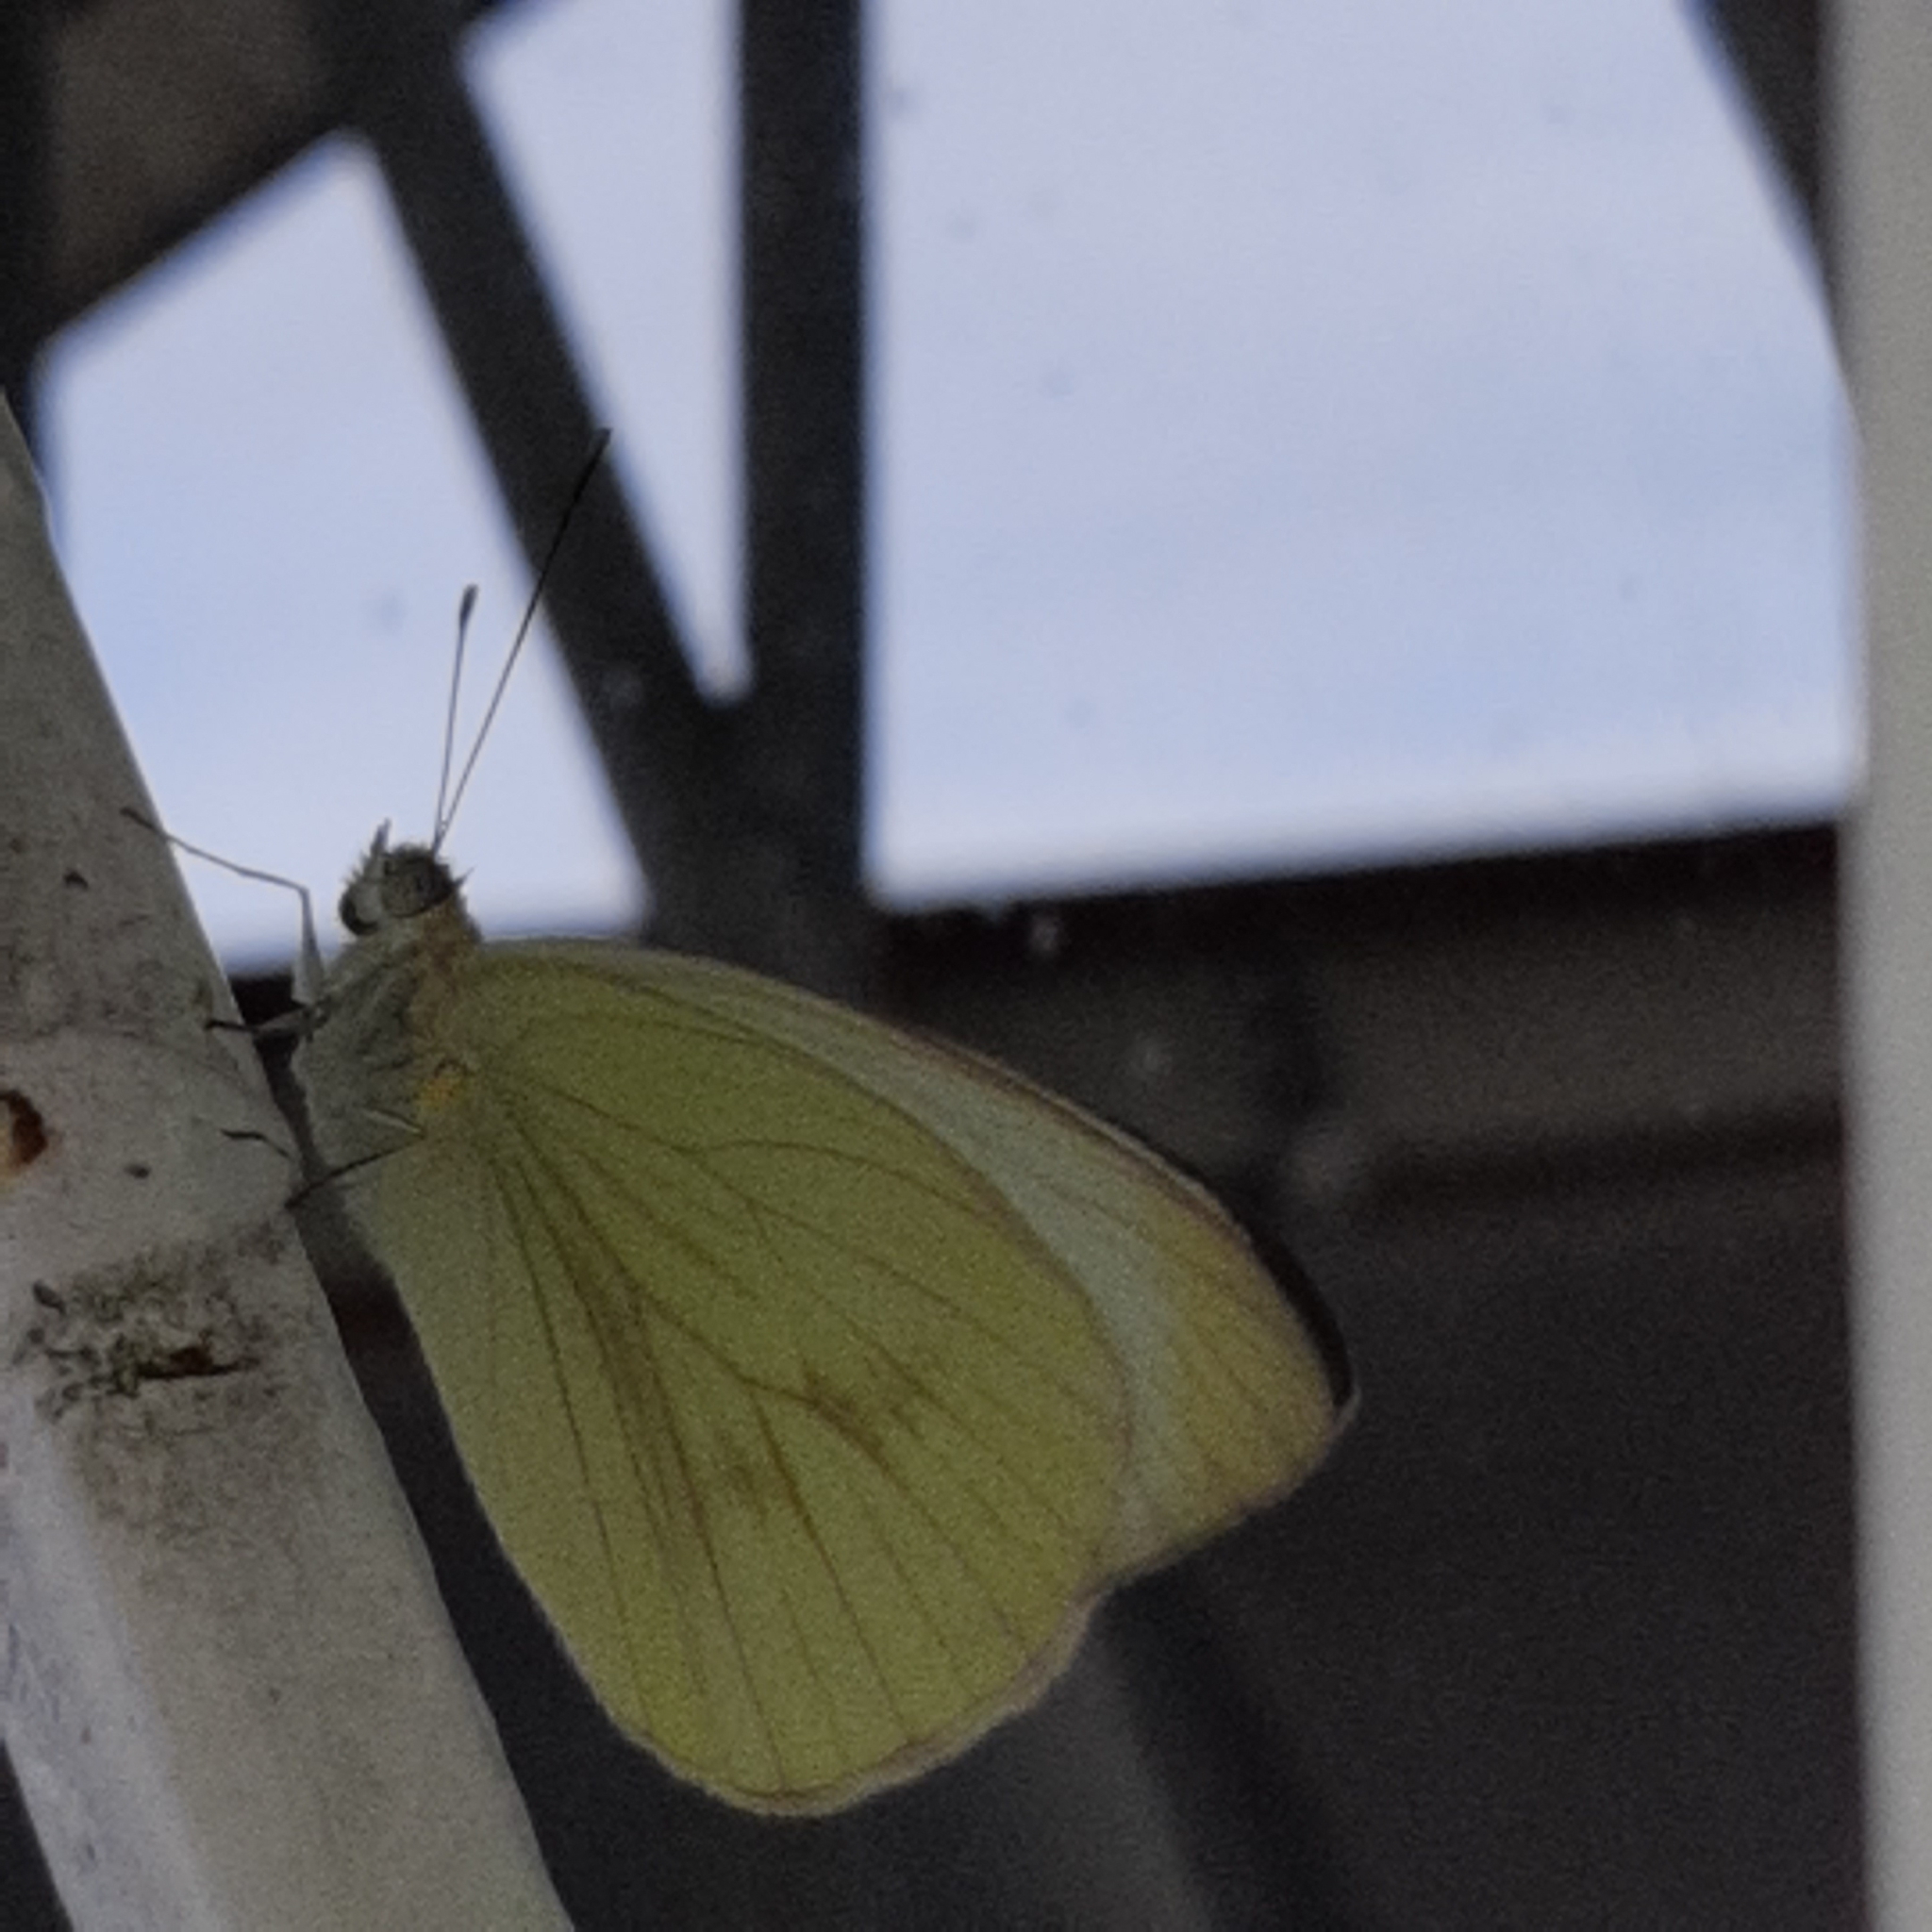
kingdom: Animalia
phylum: Arthropoda
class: Insecta
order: Lepidoptera
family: Pieridae
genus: Ascia
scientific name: Ascia monuste
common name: Great southern white
